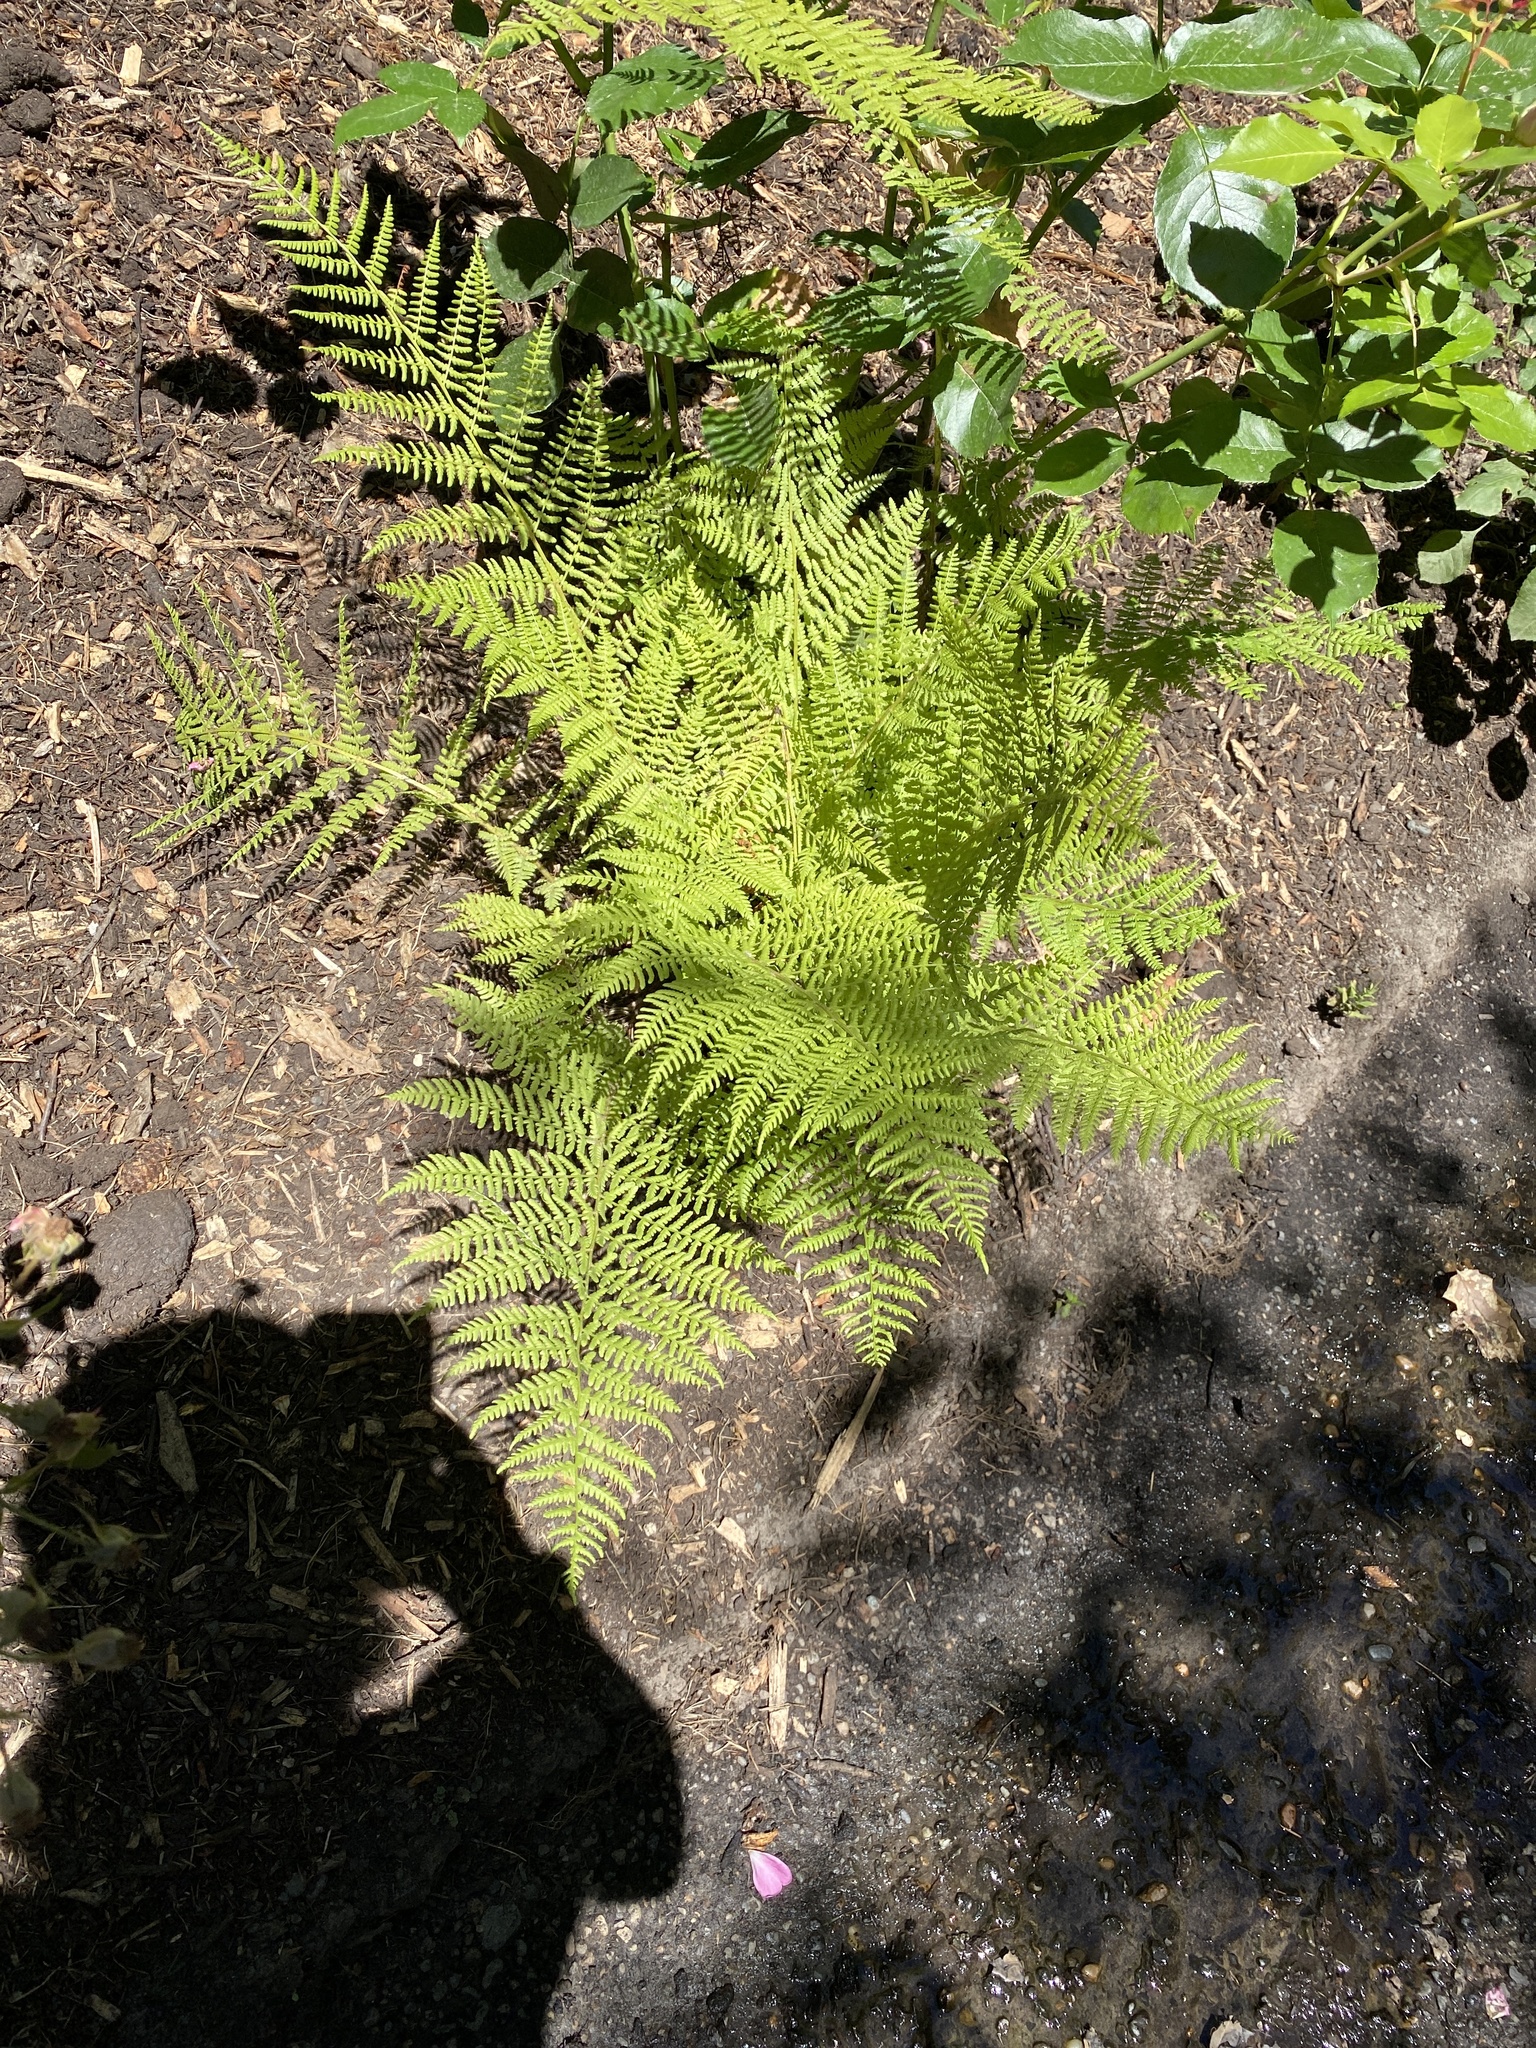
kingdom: Plantae
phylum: Tracheophyta
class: Polypodiopsida
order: Polypodiales
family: Athyriaceae
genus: Athyrium
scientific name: Athyrium filix-femina
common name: Lady fern
